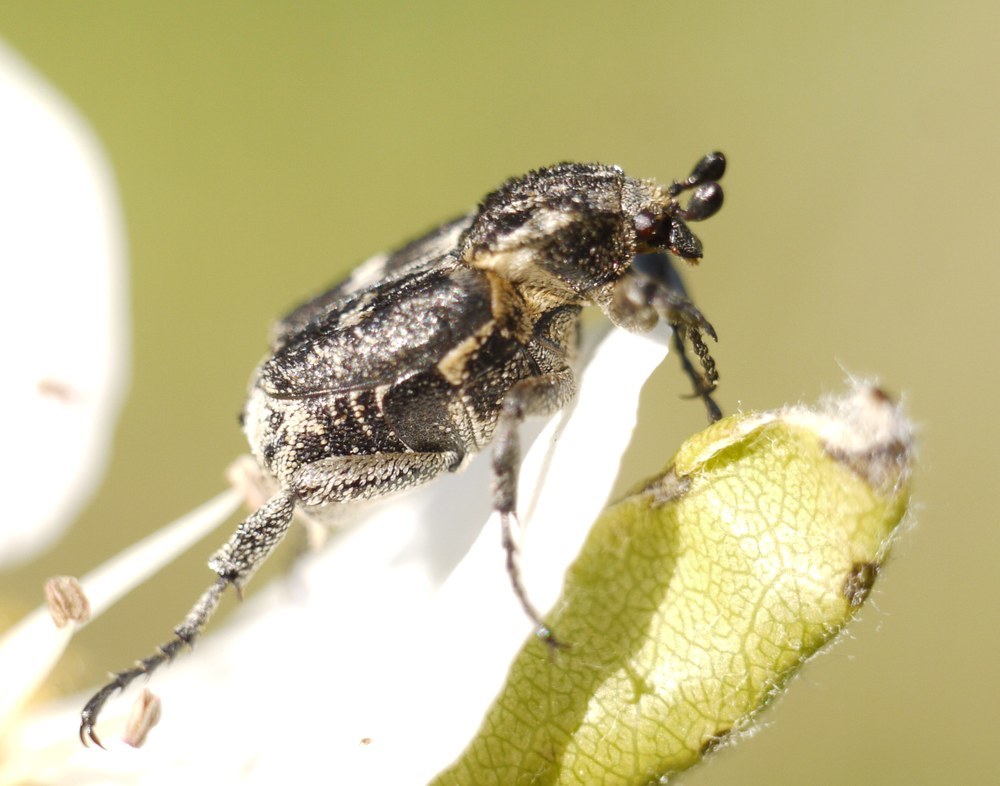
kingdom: Animalia
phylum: Arthropoda
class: Insecta
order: Coleoptera
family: Scarabaeidae
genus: Valgus
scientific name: Valgus hemipterus
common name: Bug flower chafer
